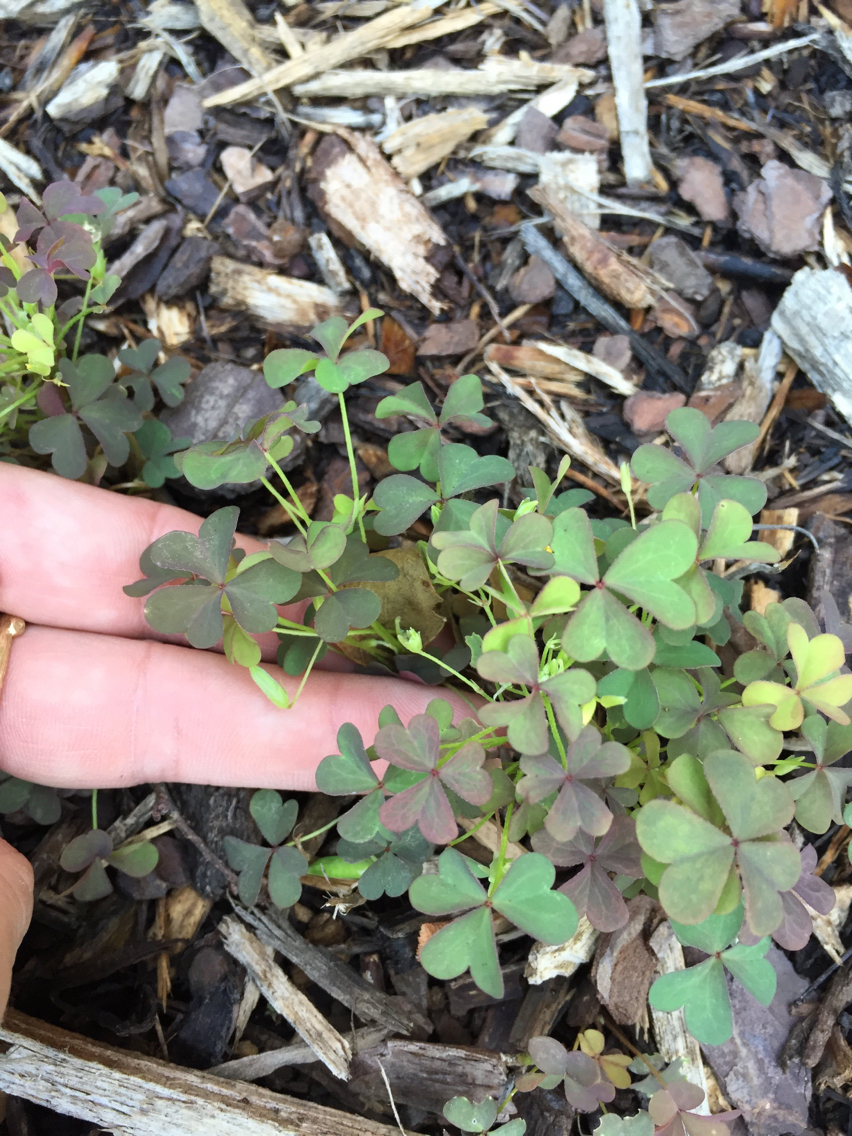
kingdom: Plantae
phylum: Tracheophyta
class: Magnoliopsida
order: Oxalidales
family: Oxalidaceae
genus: Oxalis
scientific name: Oxalis corniculata
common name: Procumbent yellow-sorrel
